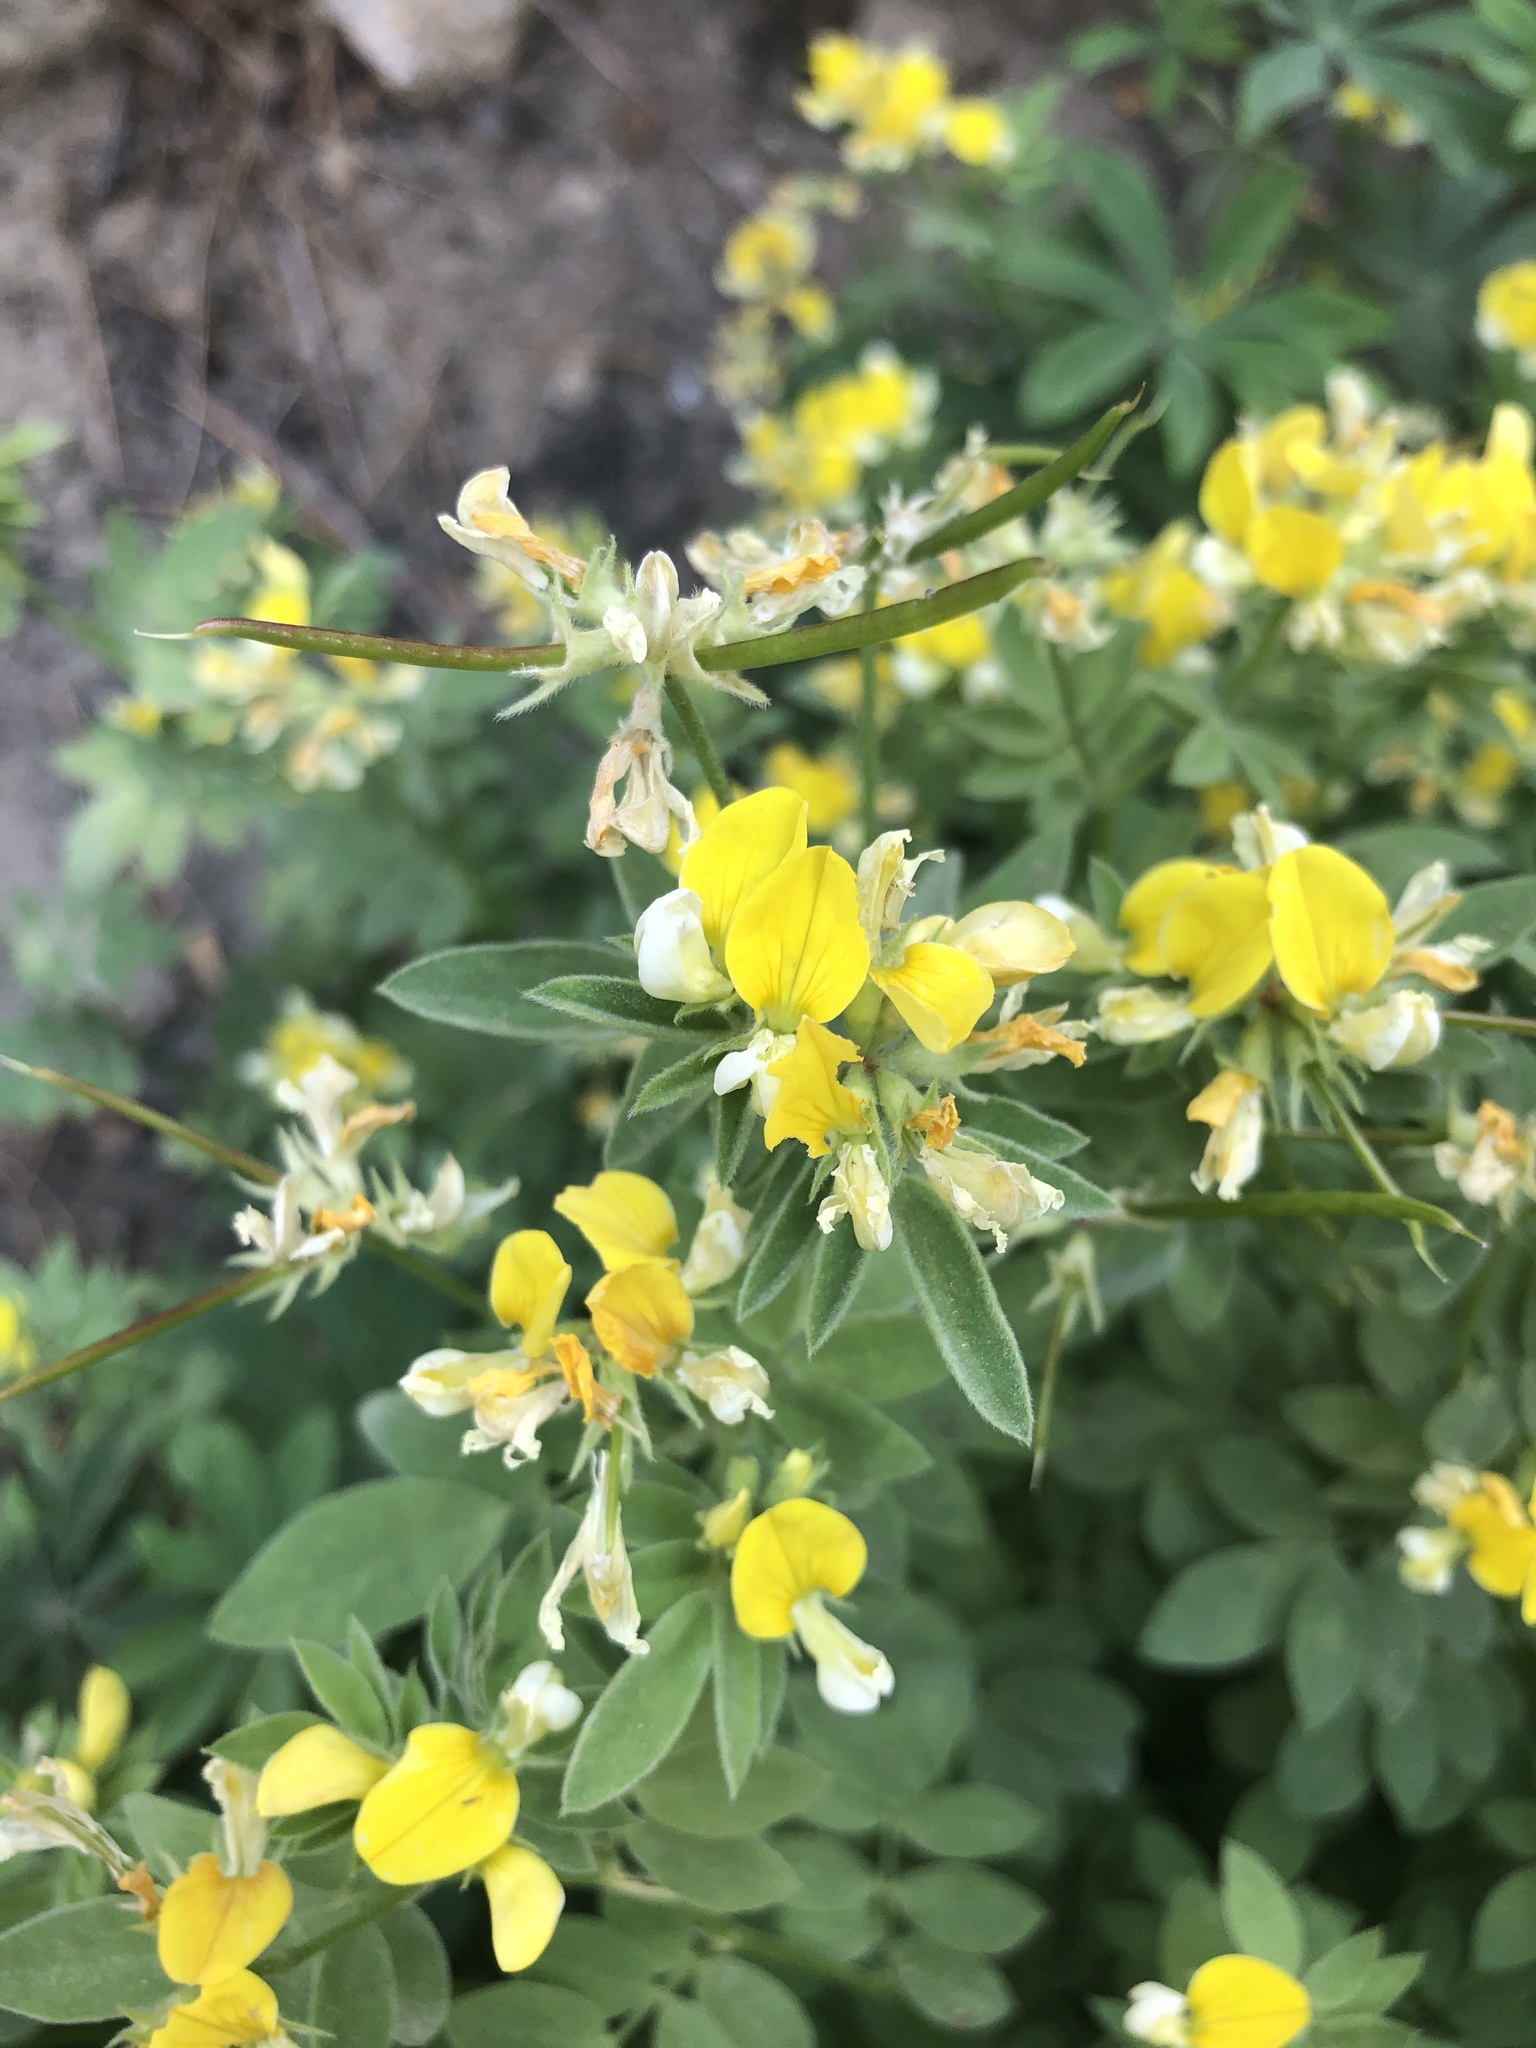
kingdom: Plantae
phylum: Tracheophyta
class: Magnoliopsida
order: Fabales
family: Fabaceae
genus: Hosackia
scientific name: Hosackia oblongifolia
